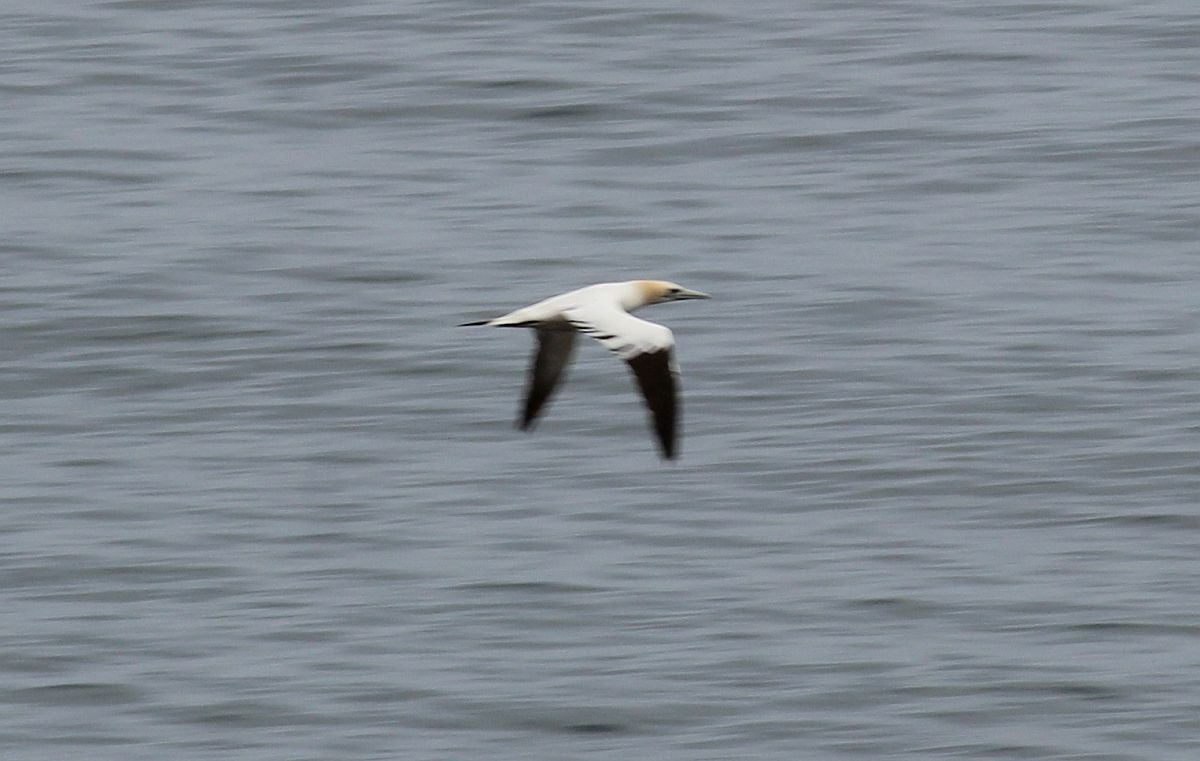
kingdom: Animalia
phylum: Chordata
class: Aves
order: Suliformes
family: Sulidae
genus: Morus
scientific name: Morus bassanus
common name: Northern gannet
